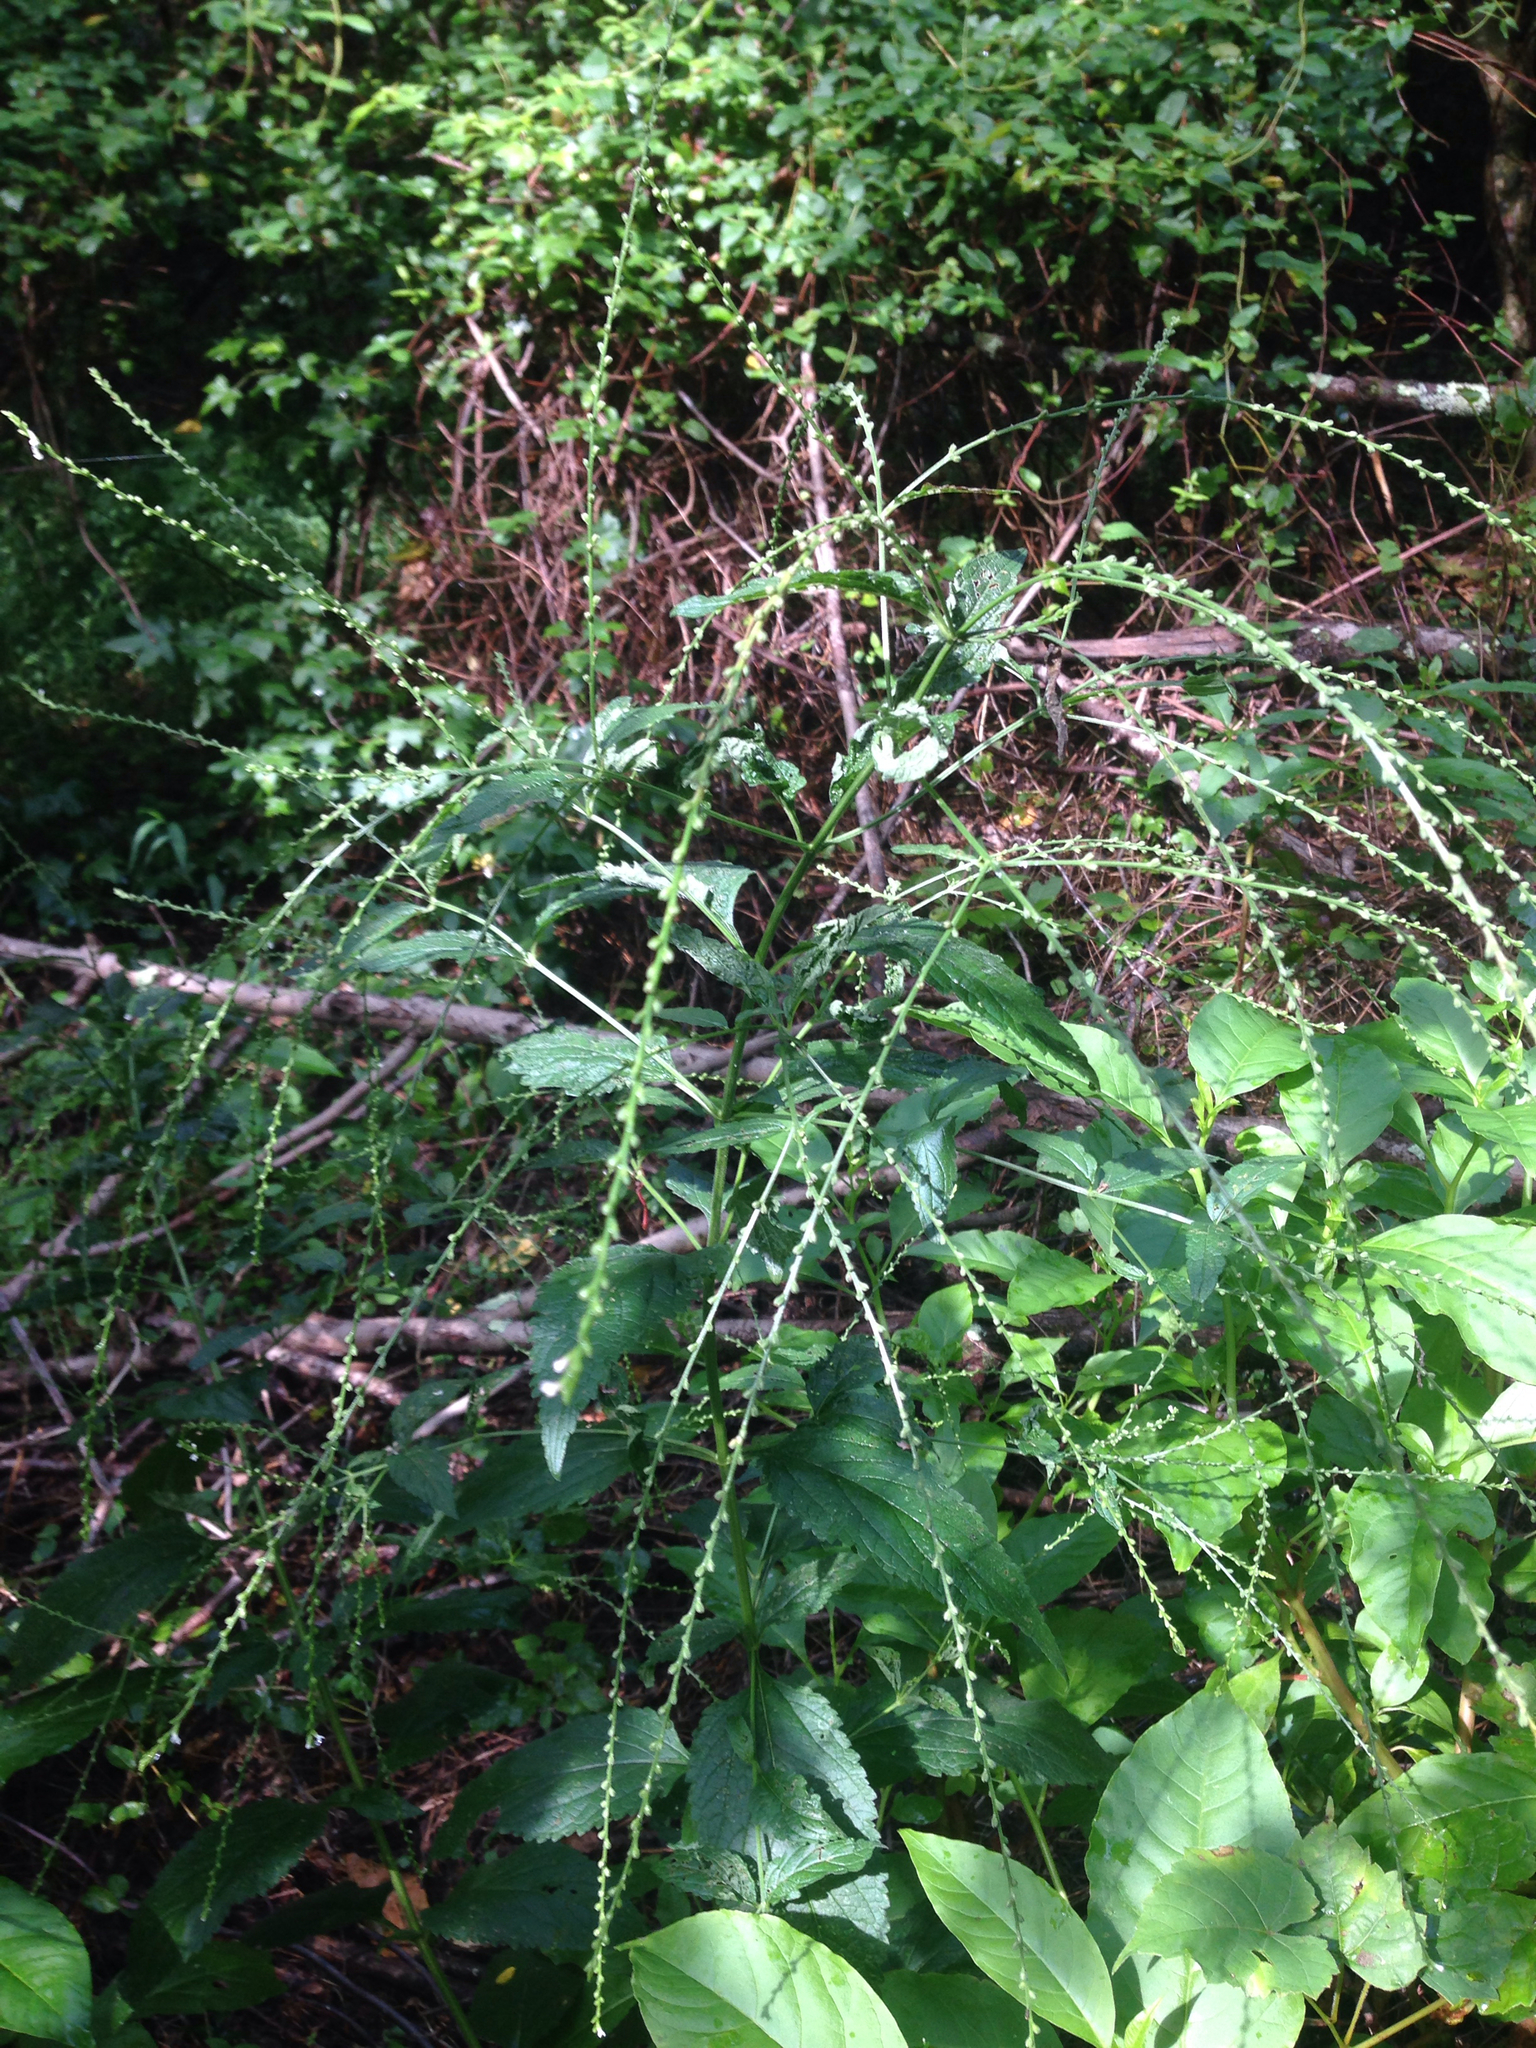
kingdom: Plantae
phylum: Tracheophyta
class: Magnoliopsida
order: Lamiales
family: Verbenaceae
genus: Verbena
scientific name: Verbena urticifolia
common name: Nettle-leaved vervain
